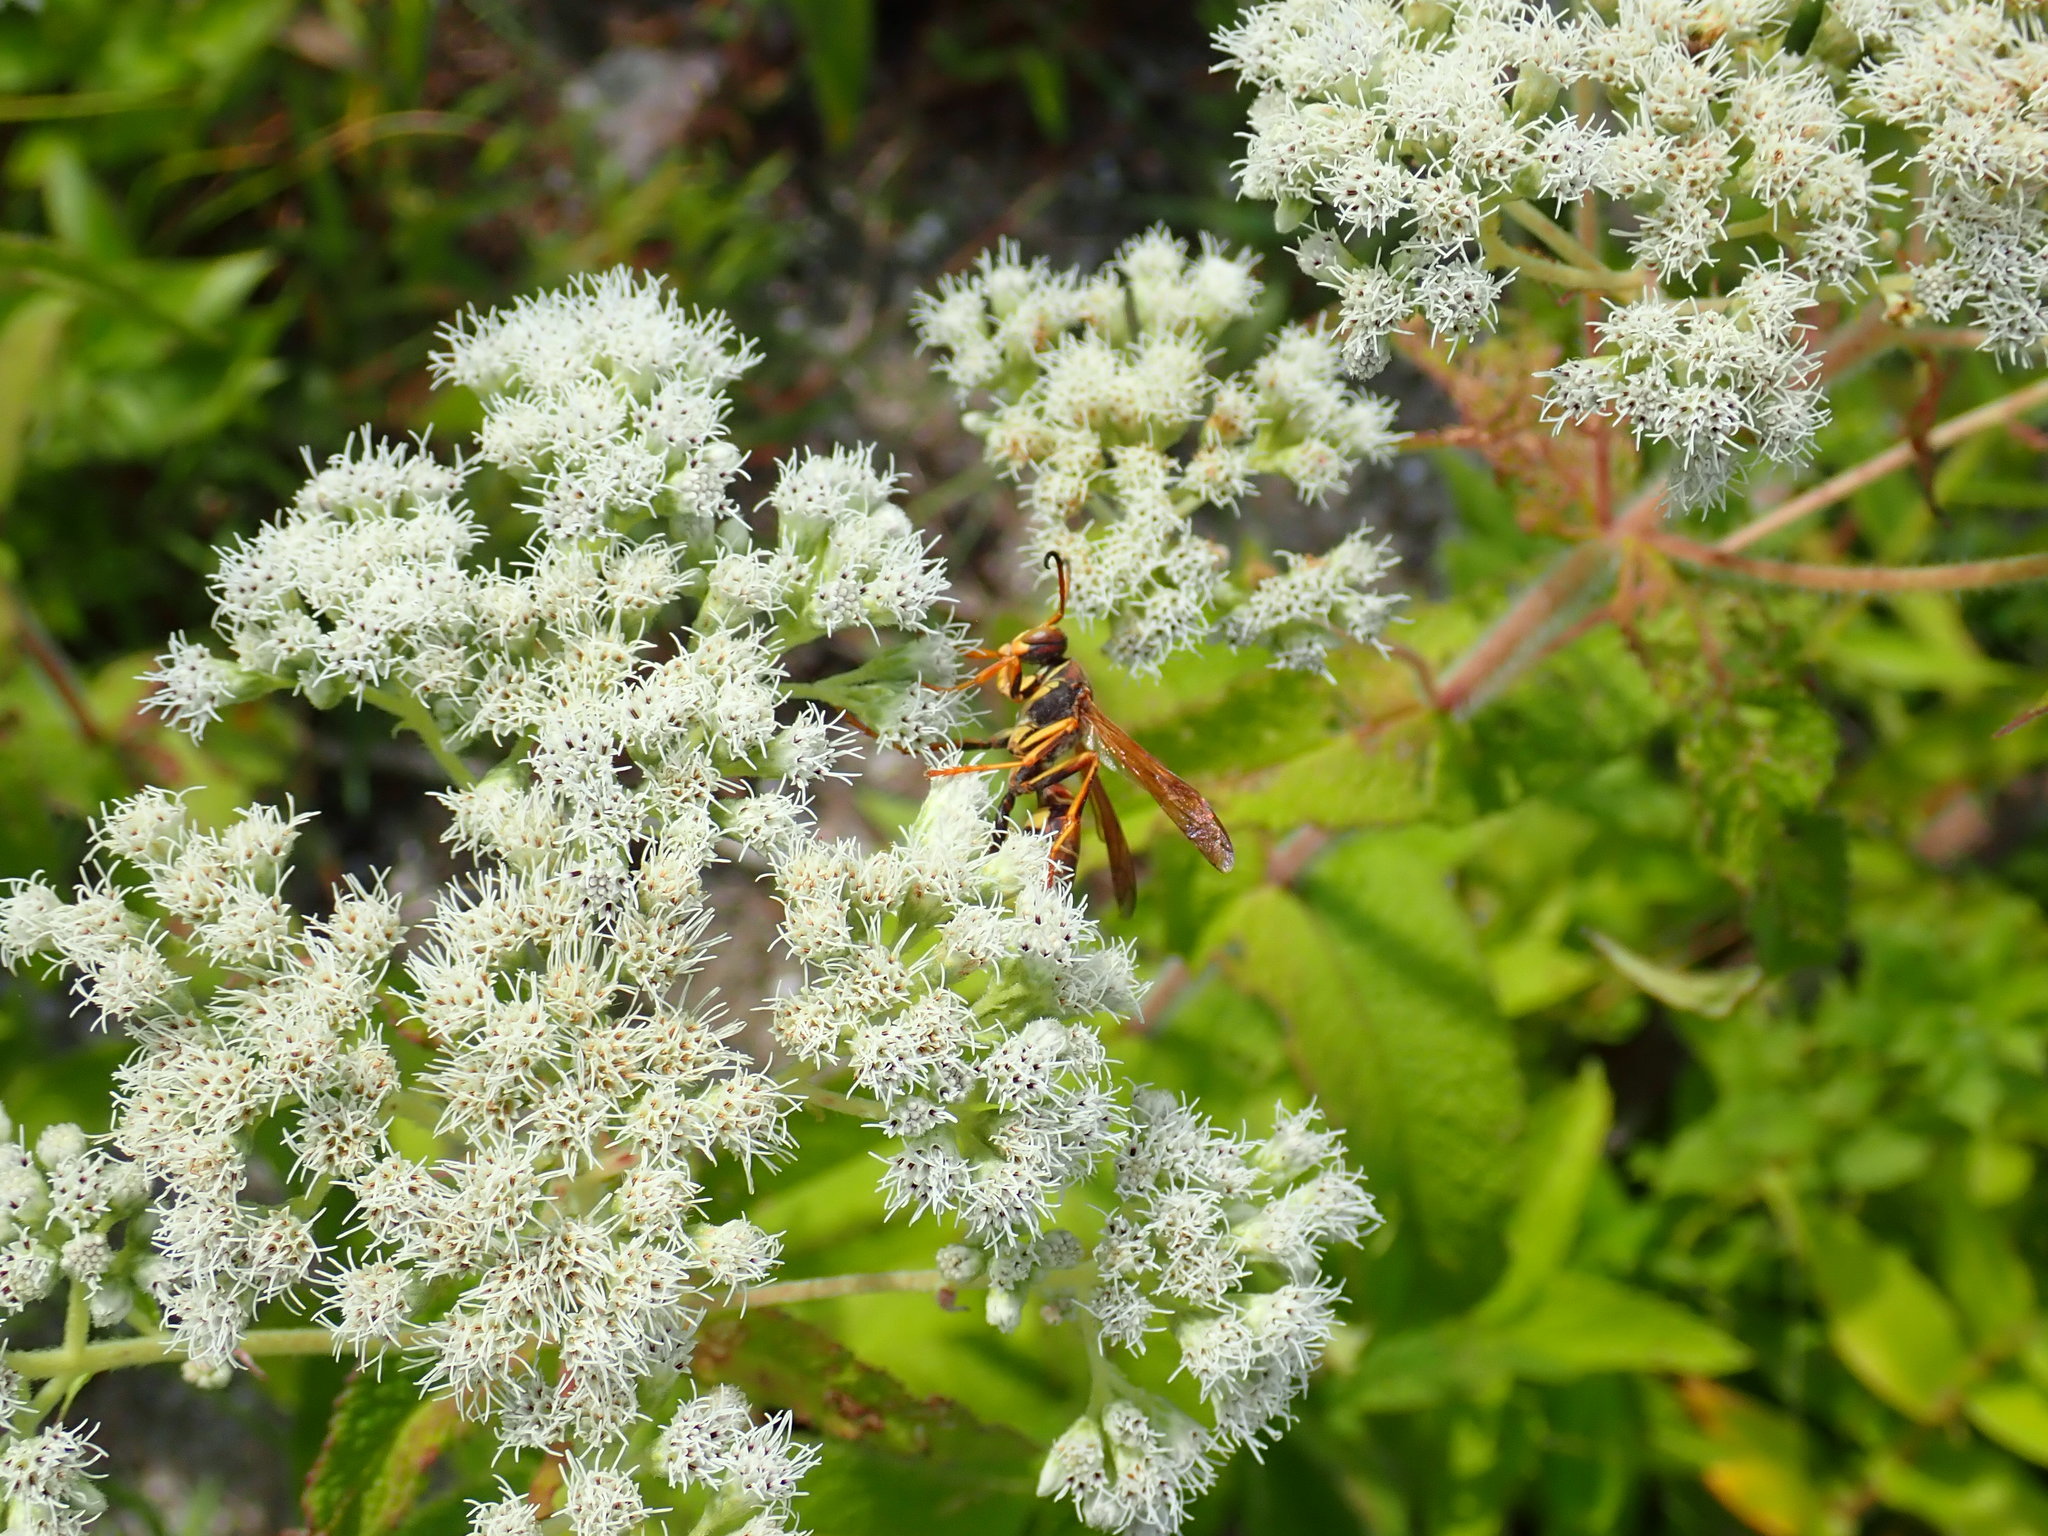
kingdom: Animalia
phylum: Arthropoda
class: Insecta
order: Hymenoptera
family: Eumenidae
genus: Polistes
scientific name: Polistes fuscatus
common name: Dark paper wasp
